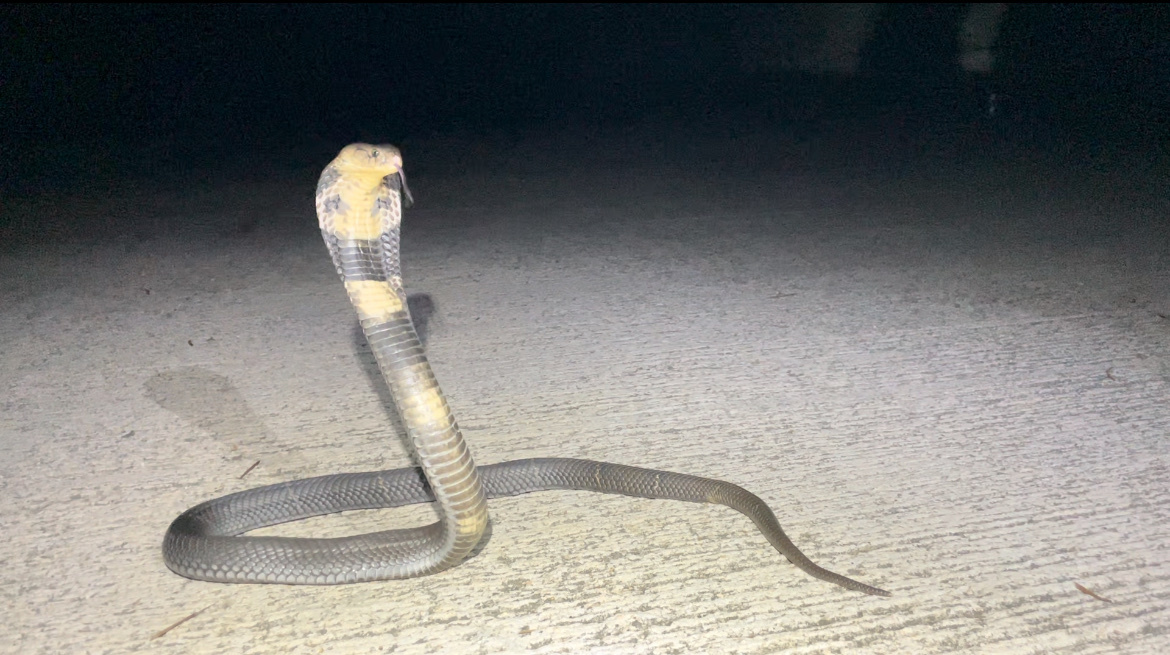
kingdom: Animalia
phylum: Chordata
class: Squamata
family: Elapidae
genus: Naja
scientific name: Naja atra
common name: Chinese cobra
